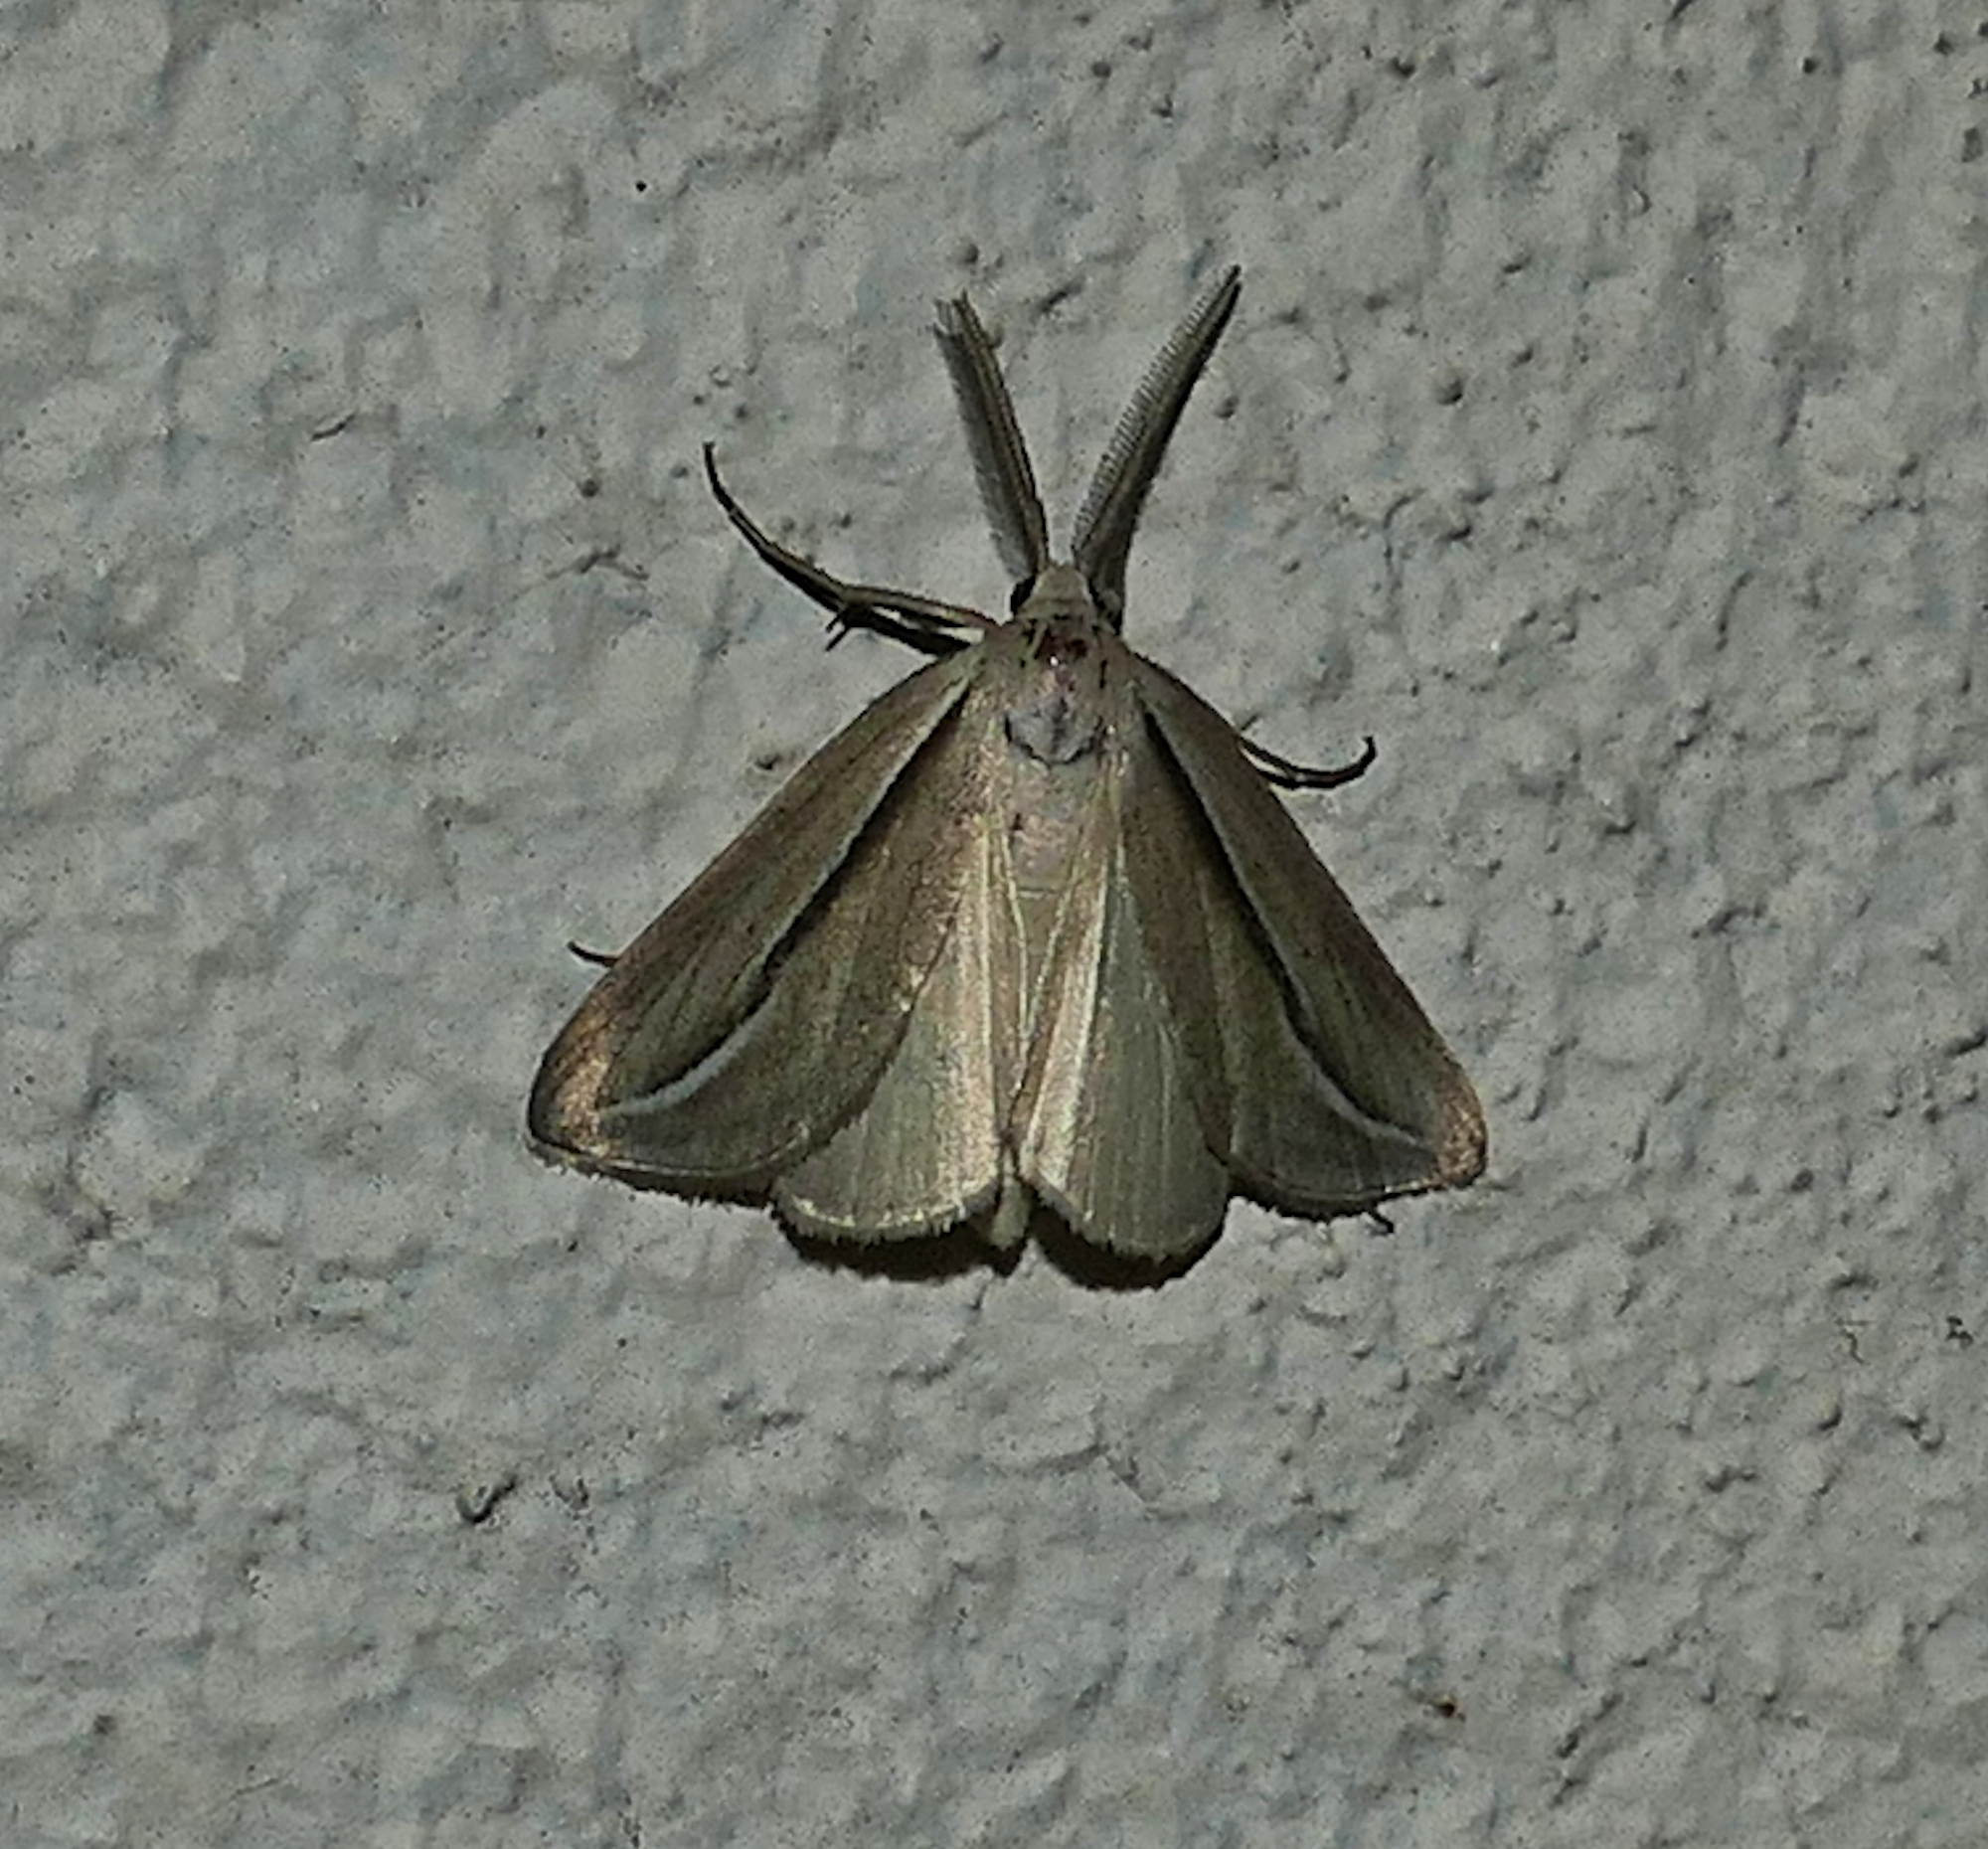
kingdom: Animalia
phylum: Arthropoda
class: Insecta
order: Lepidoptera
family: Erebidae
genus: Doryodes
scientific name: Doryodes latistriga
